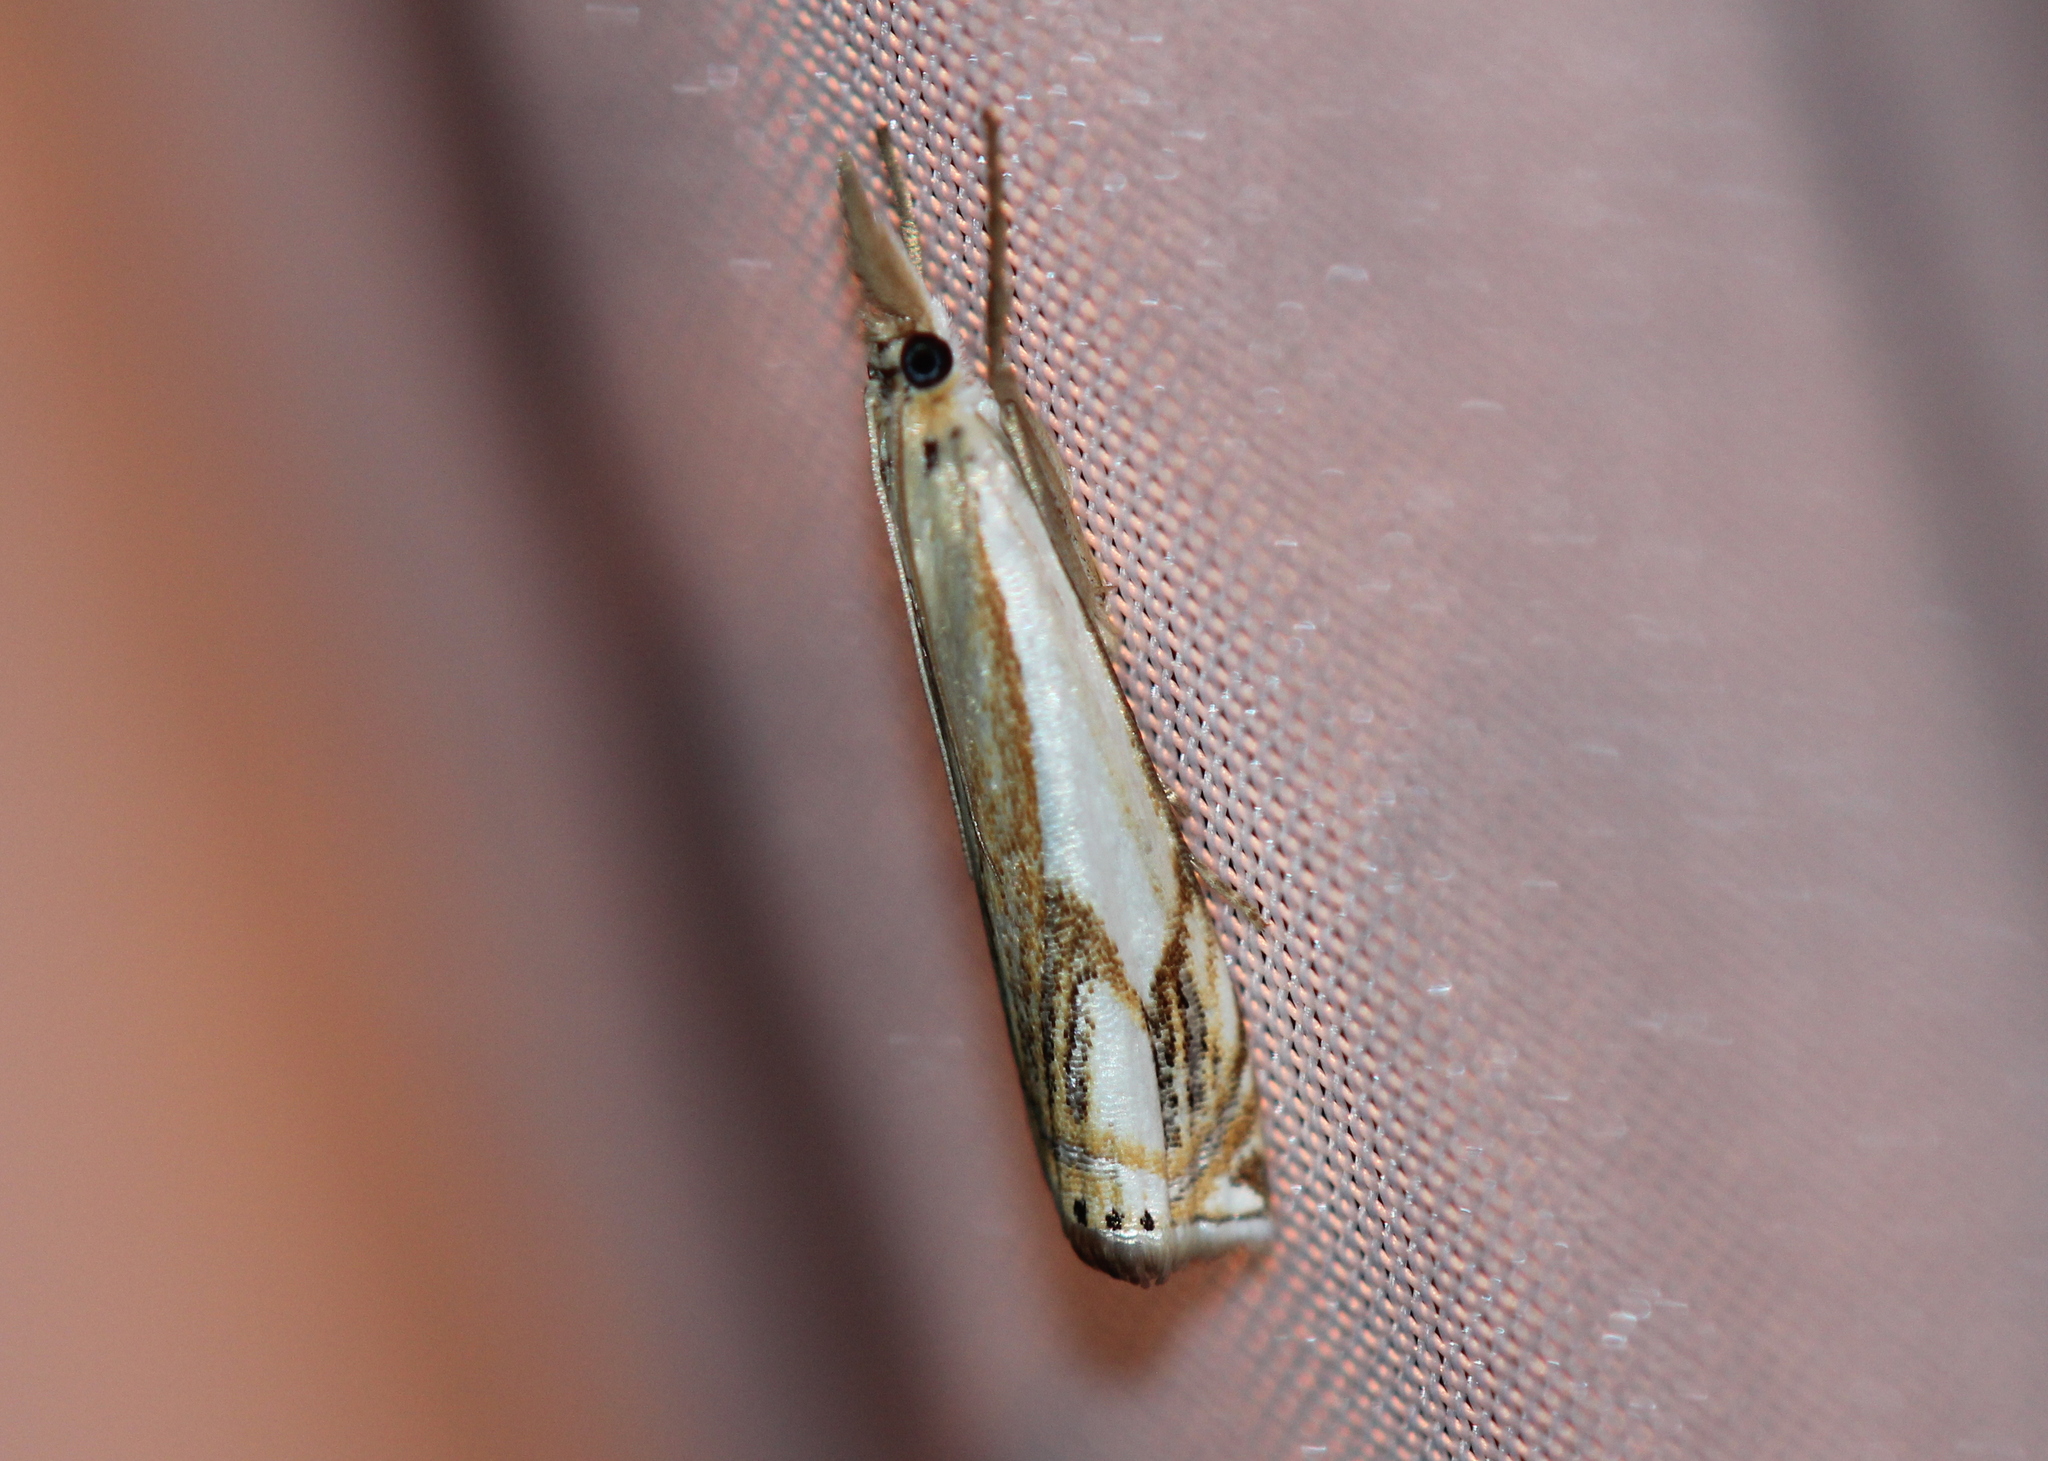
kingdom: Animalia
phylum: Arthropoda
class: Insecta
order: Lepidoptera
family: Crambidae
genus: Crambus
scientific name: Crambus agitatellus
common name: Double-banded grass-veneer
